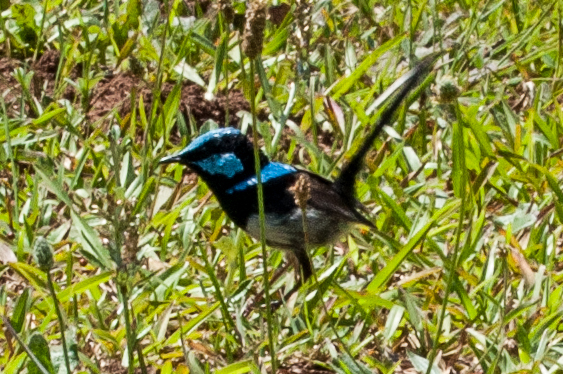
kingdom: Animalia
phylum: Chordata
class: Aves
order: Passeriformes
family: Maluridae
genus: Malurus
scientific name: Malurus cyaneus
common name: Superb fairywren
